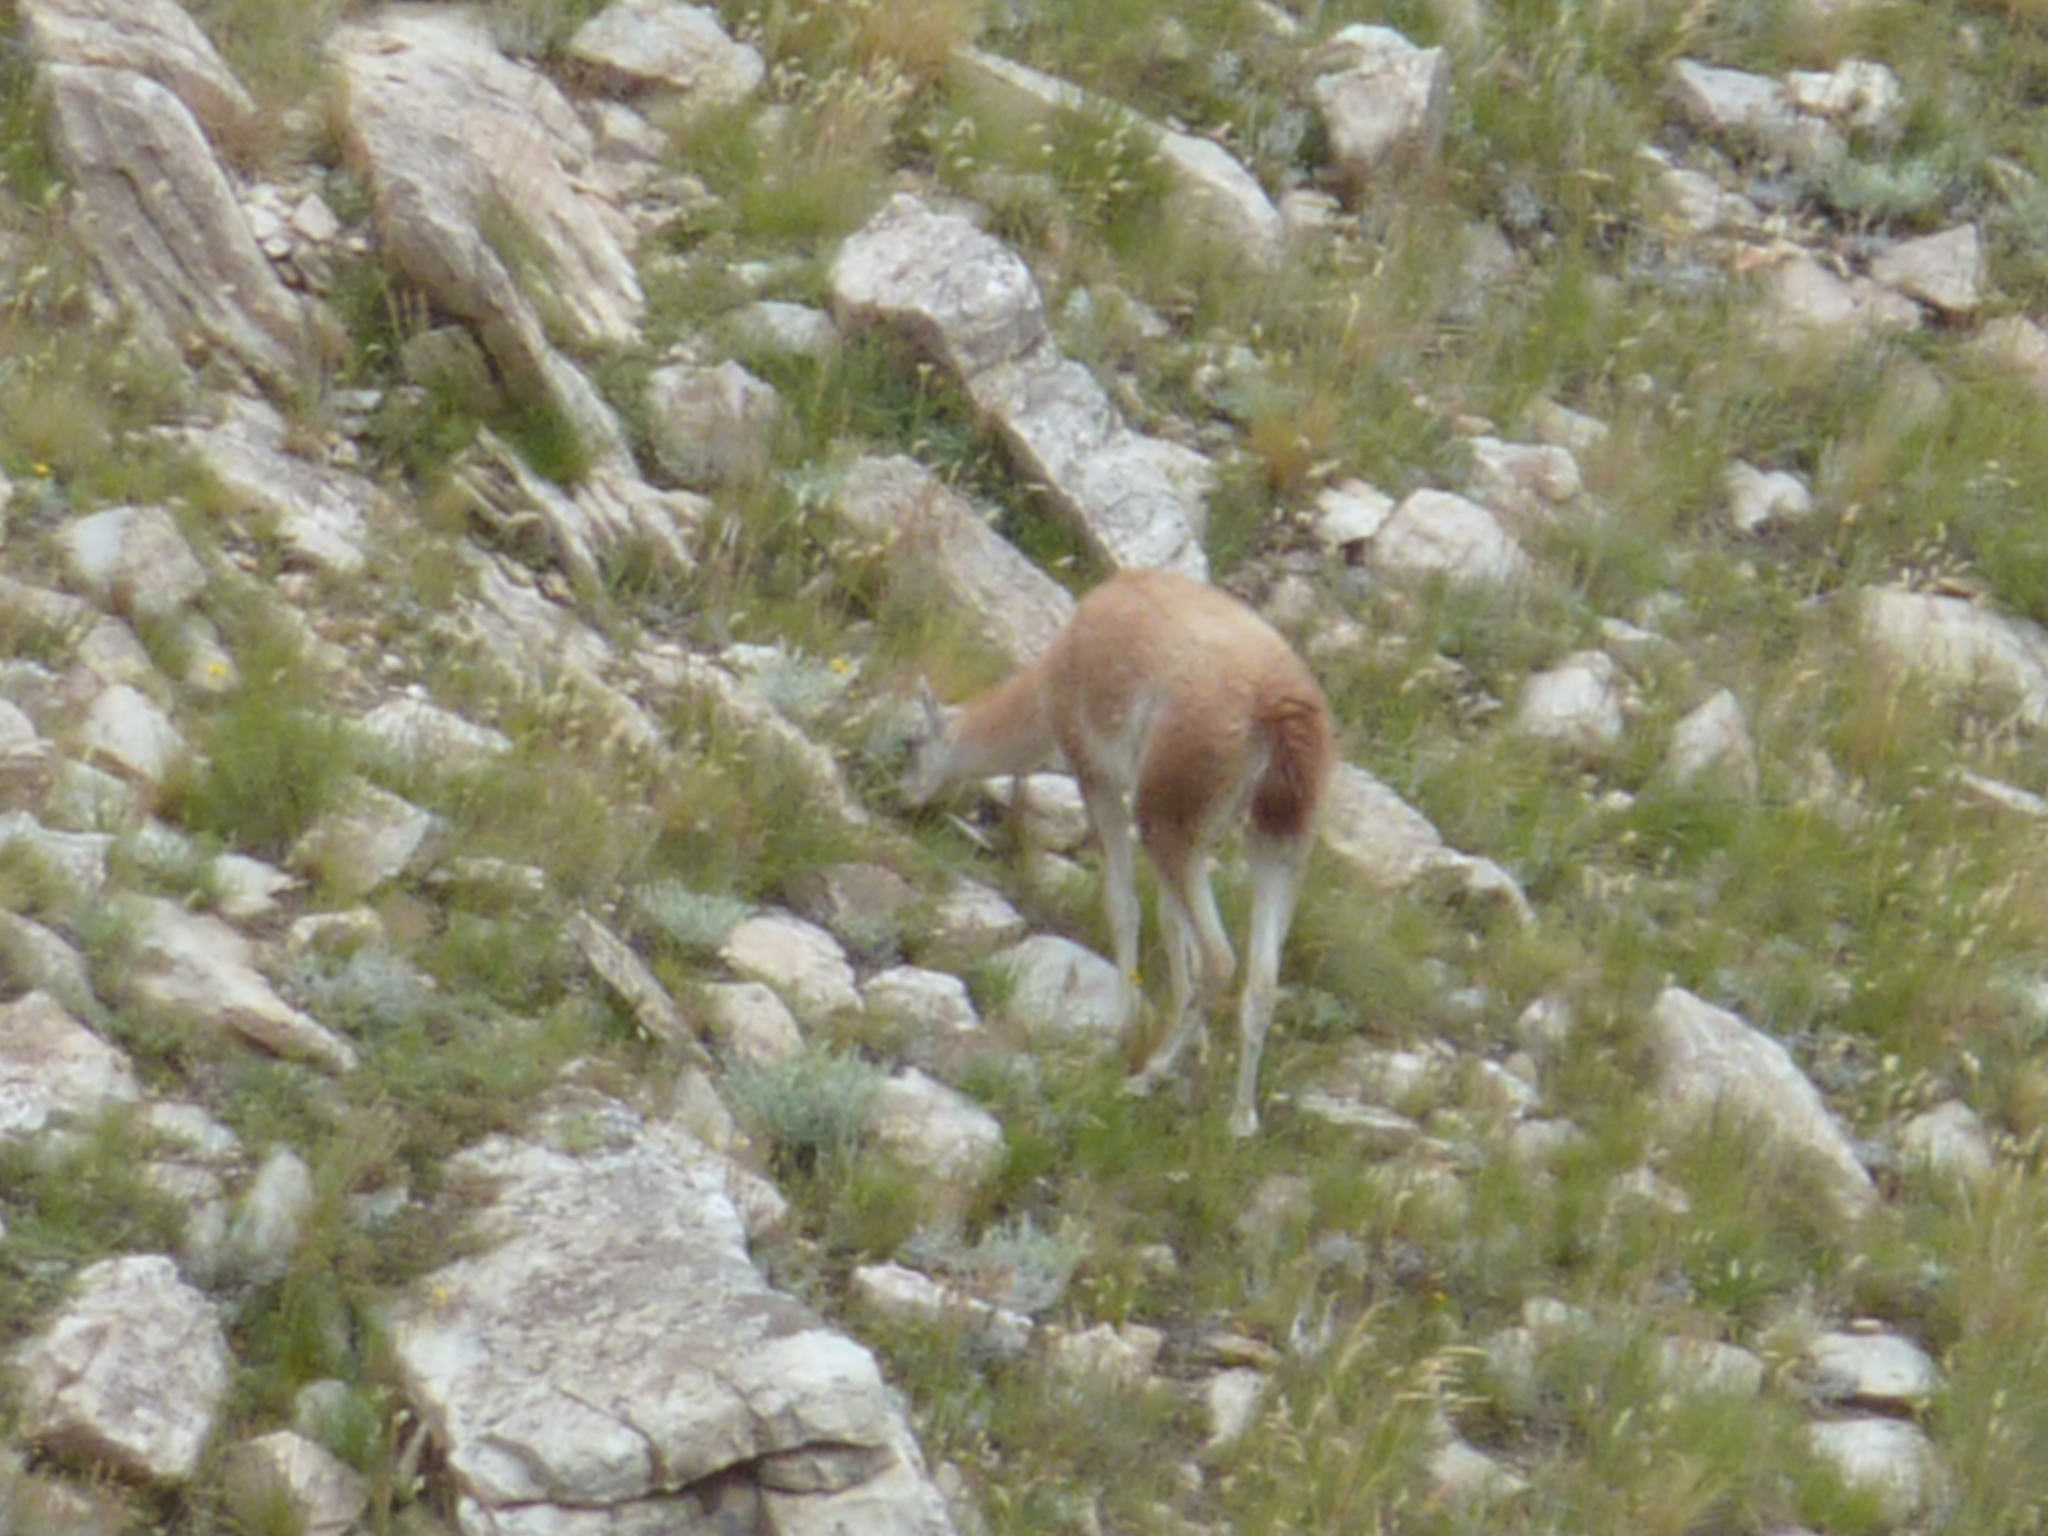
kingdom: Animalia
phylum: Chordata
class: Mammalia
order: Artiodactyla
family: Camelidae
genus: Lama
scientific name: Lama glama
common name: Llama
